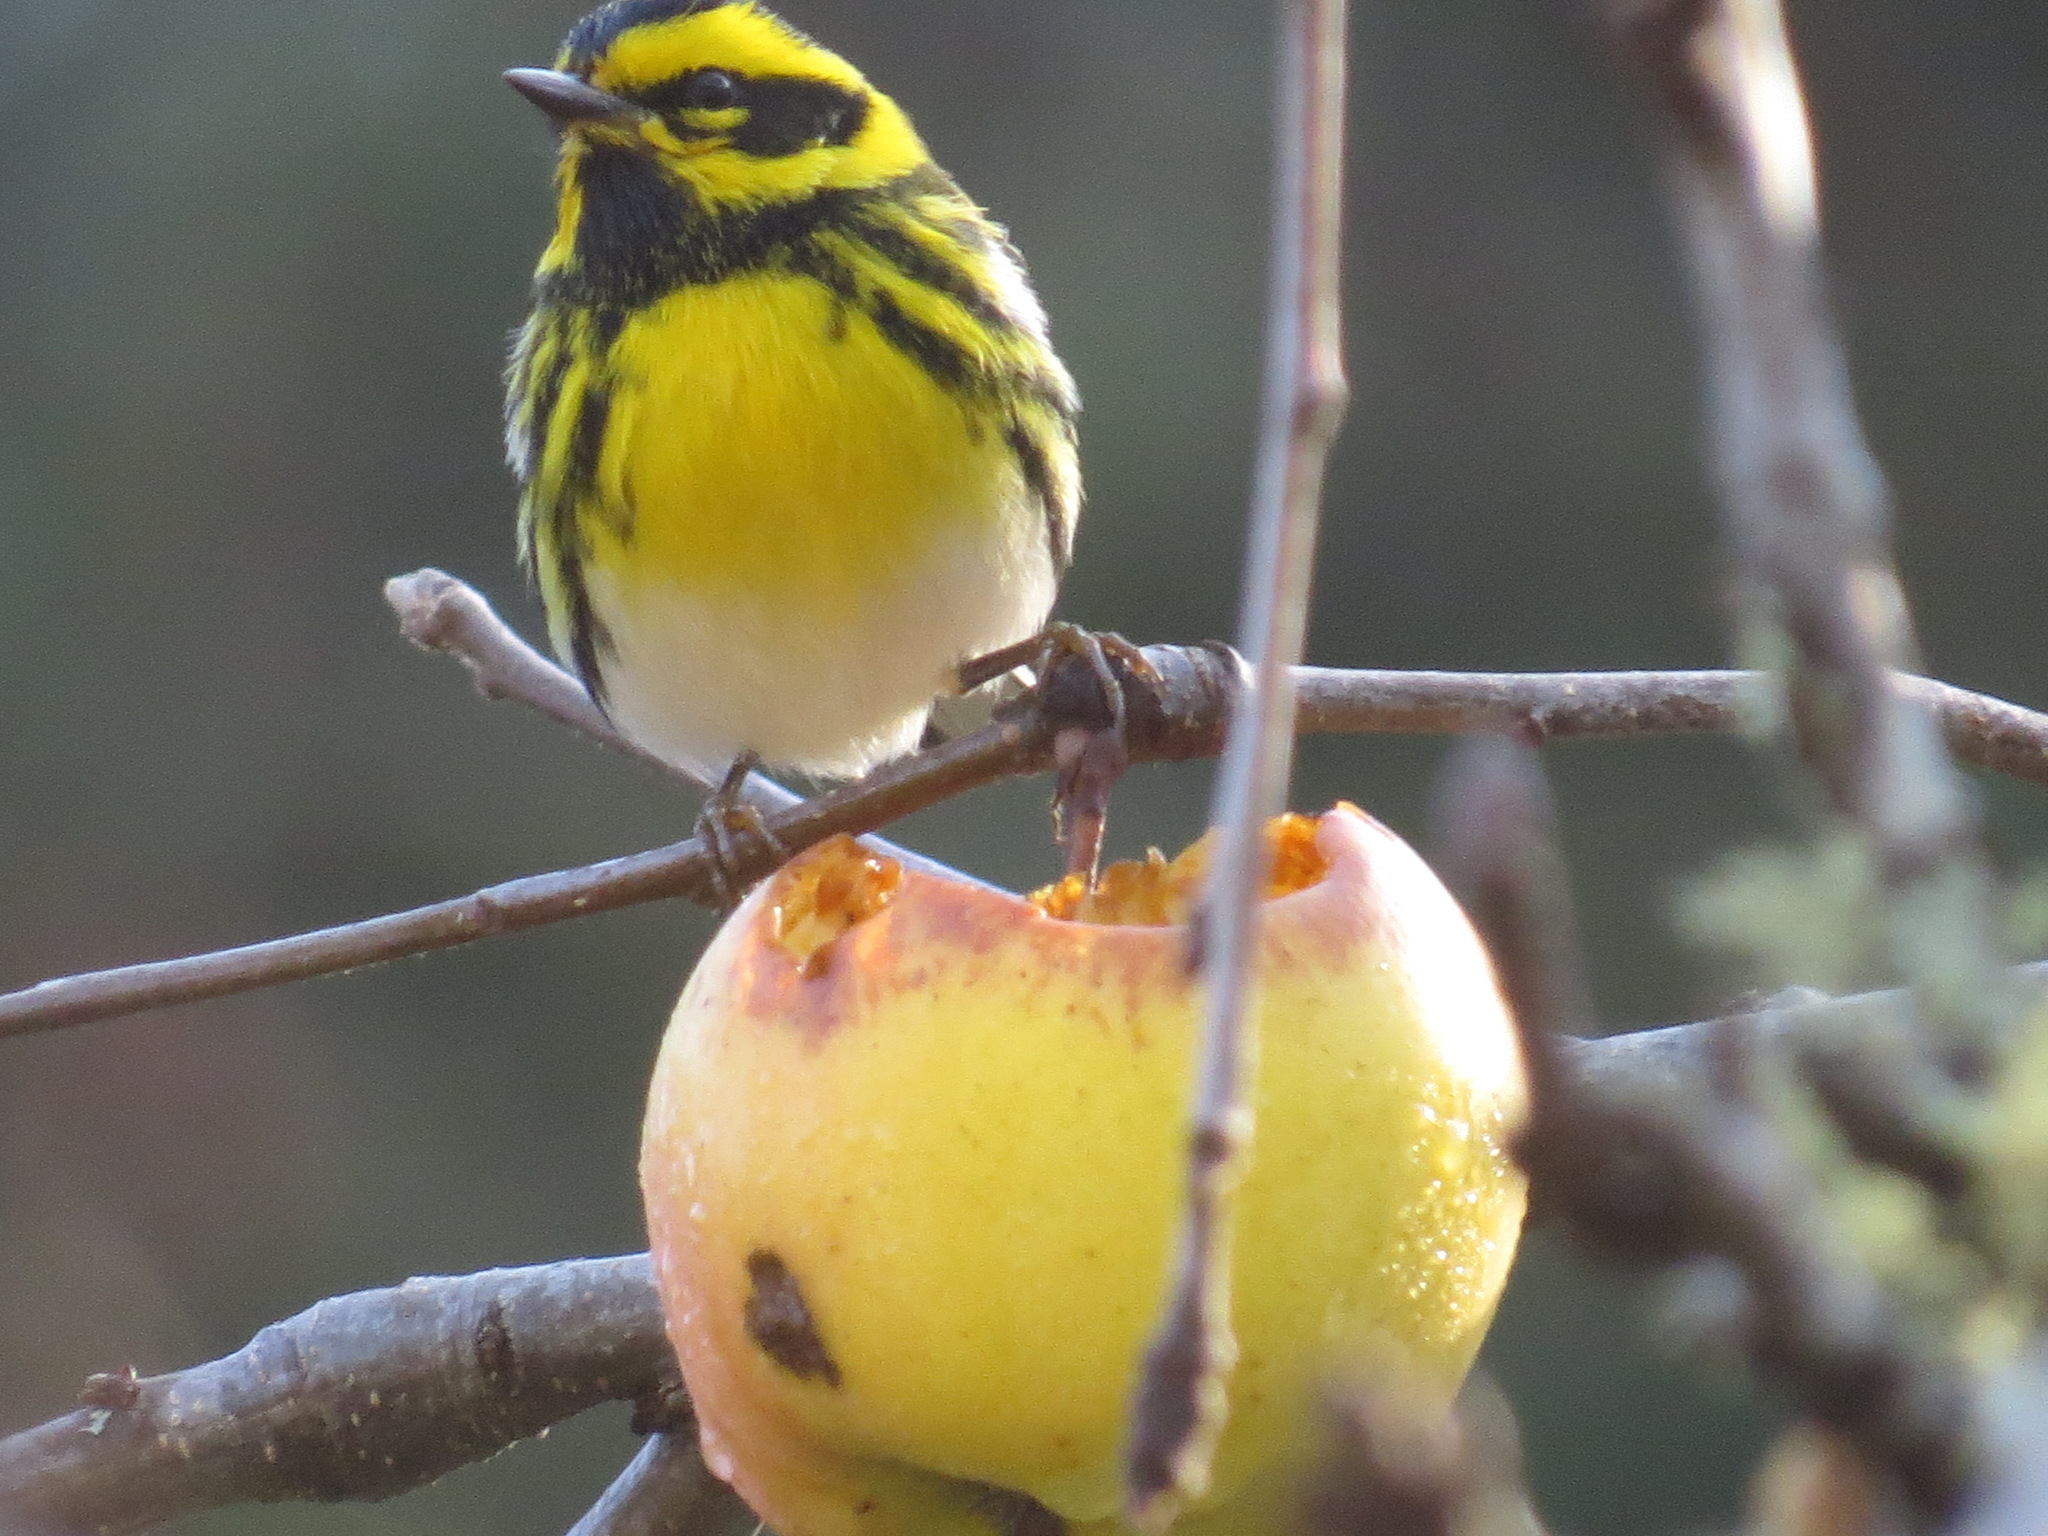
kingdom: Animalia
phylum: Chordata
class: Aves
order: Passeriformes
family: Parulidae
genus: Setophaga
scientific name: Setophaga townsendi
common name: Townsend's warbler
